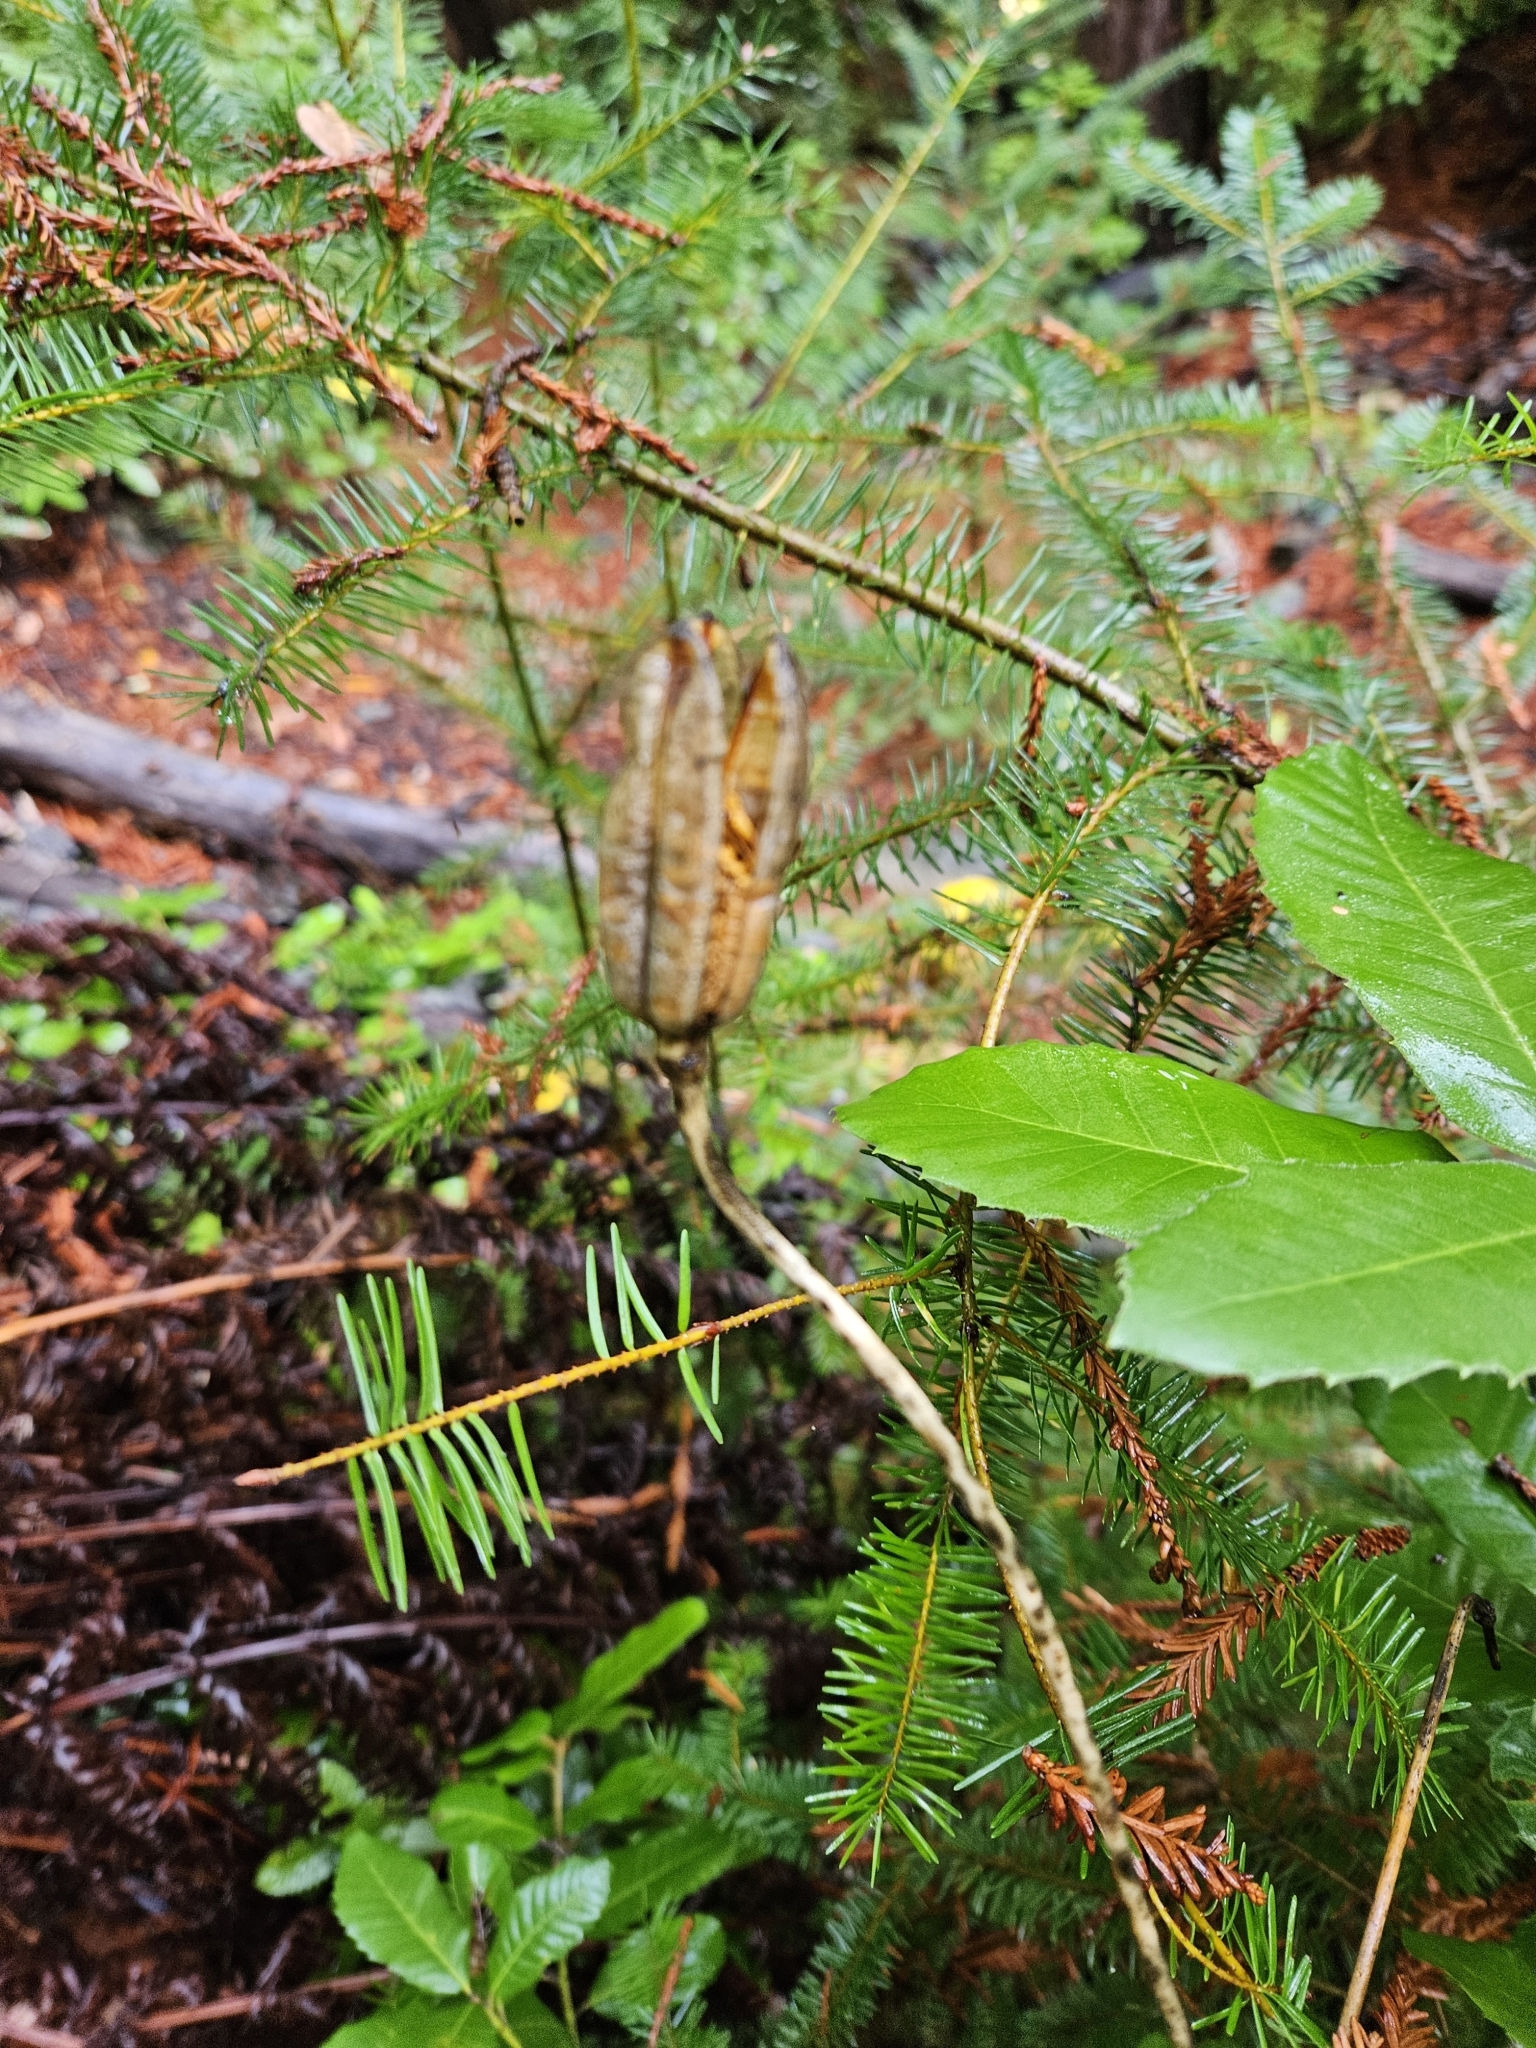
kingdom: Plantae
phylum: Tracheophyta
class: Liliopsida
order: Liliales
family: Liliaceae
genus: Lilium
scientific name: Lilium pardalinum
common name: Panther lily
